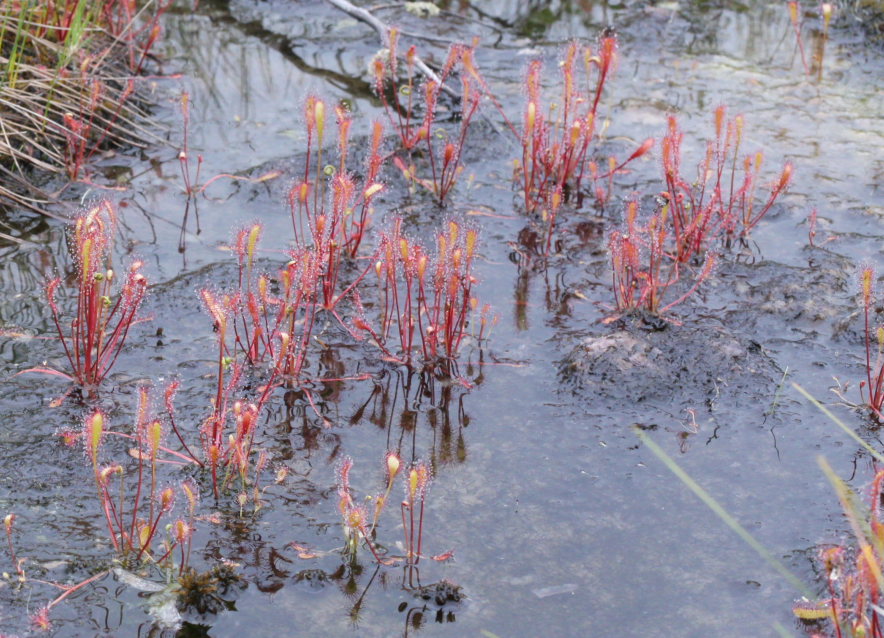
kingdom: Plantae
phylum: Tracheophyta
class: Magnoliopsida
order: Caryophyllales
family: Droseraceae
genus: Drosera
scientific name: Drosera anglica
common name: Great sundew
